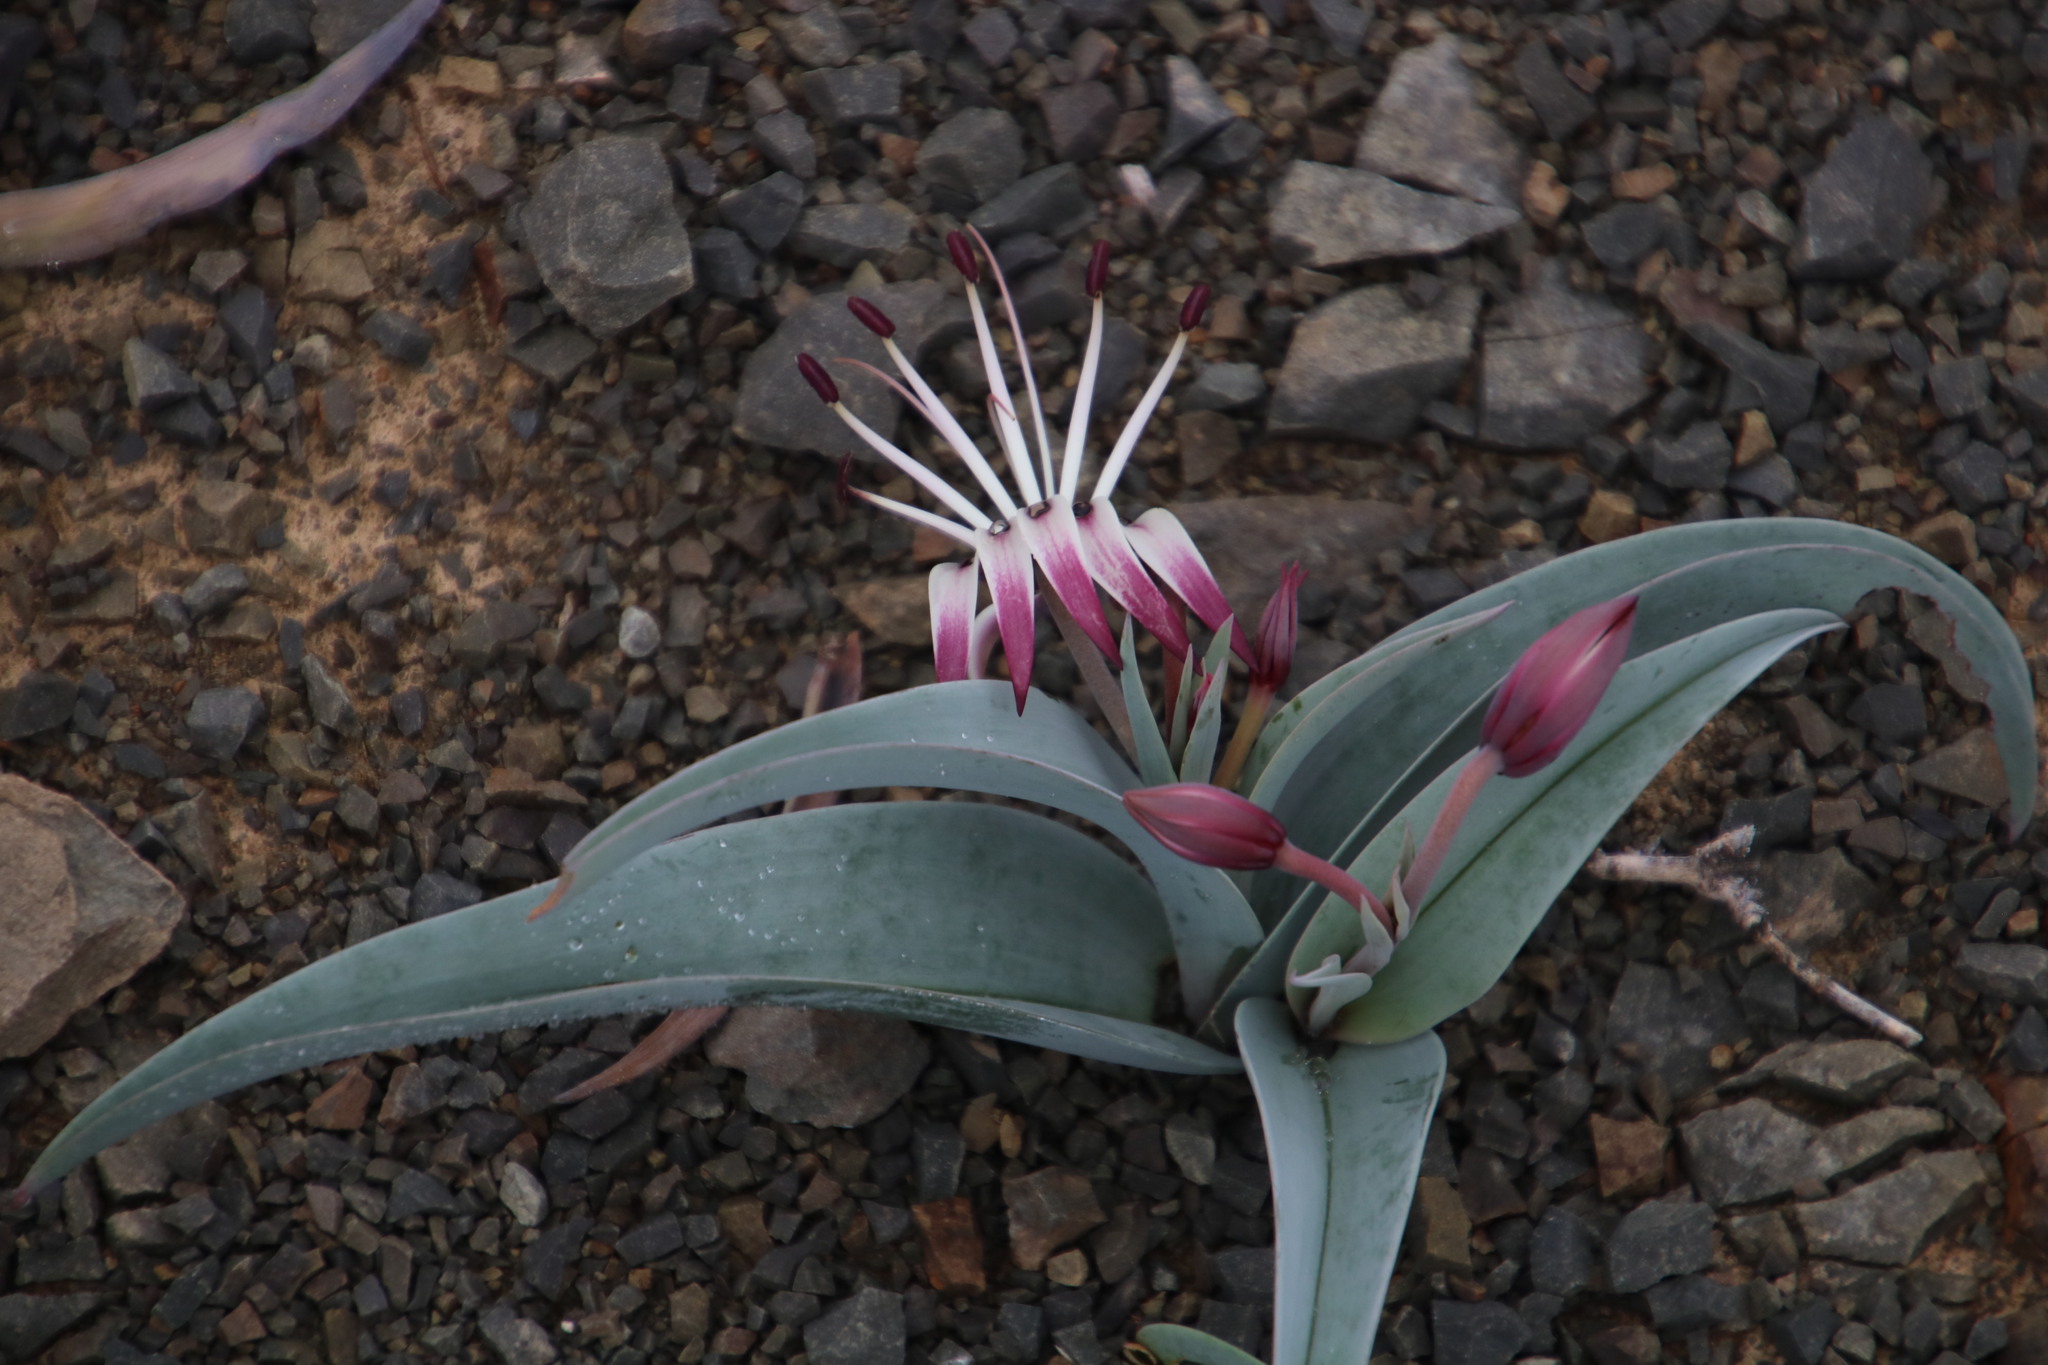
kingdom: Plantae
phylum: Tracheophyta
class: Liliopsida
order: Liliales
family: Colchicaceae
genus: Ornithoglossum
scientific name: Ornithoglossum undulatum
